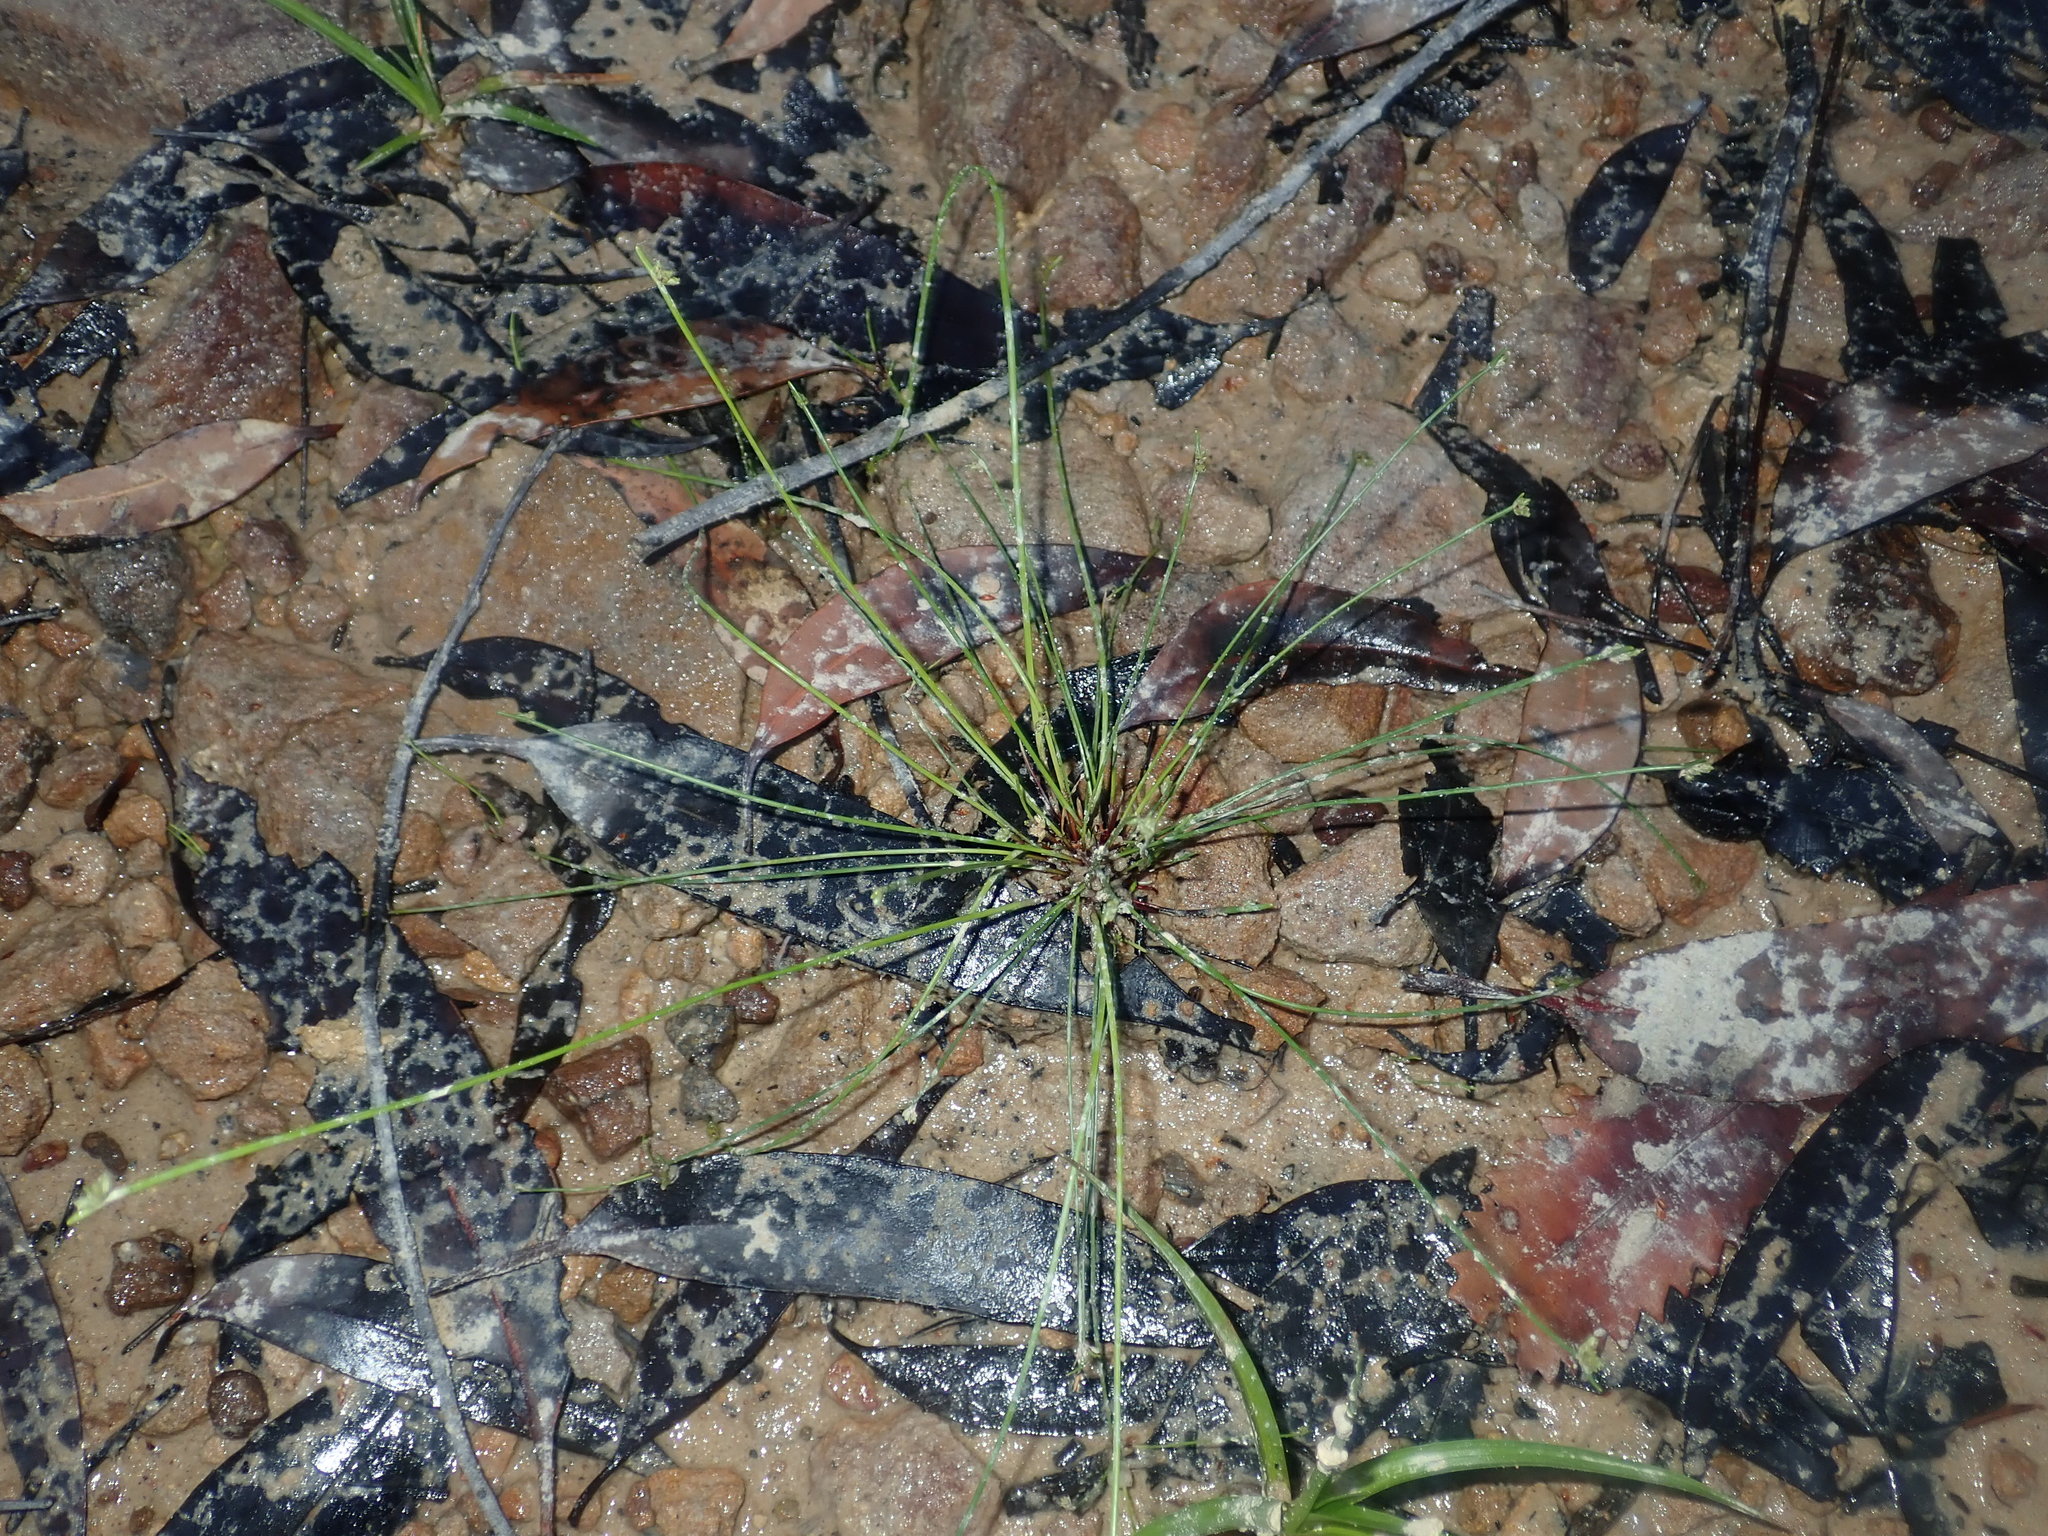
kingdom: Plantae
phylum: Tracheophyta
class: Liliopsida
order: Poales
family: Cyperaceae
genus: Isolepis
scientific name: Isolepis inundata
